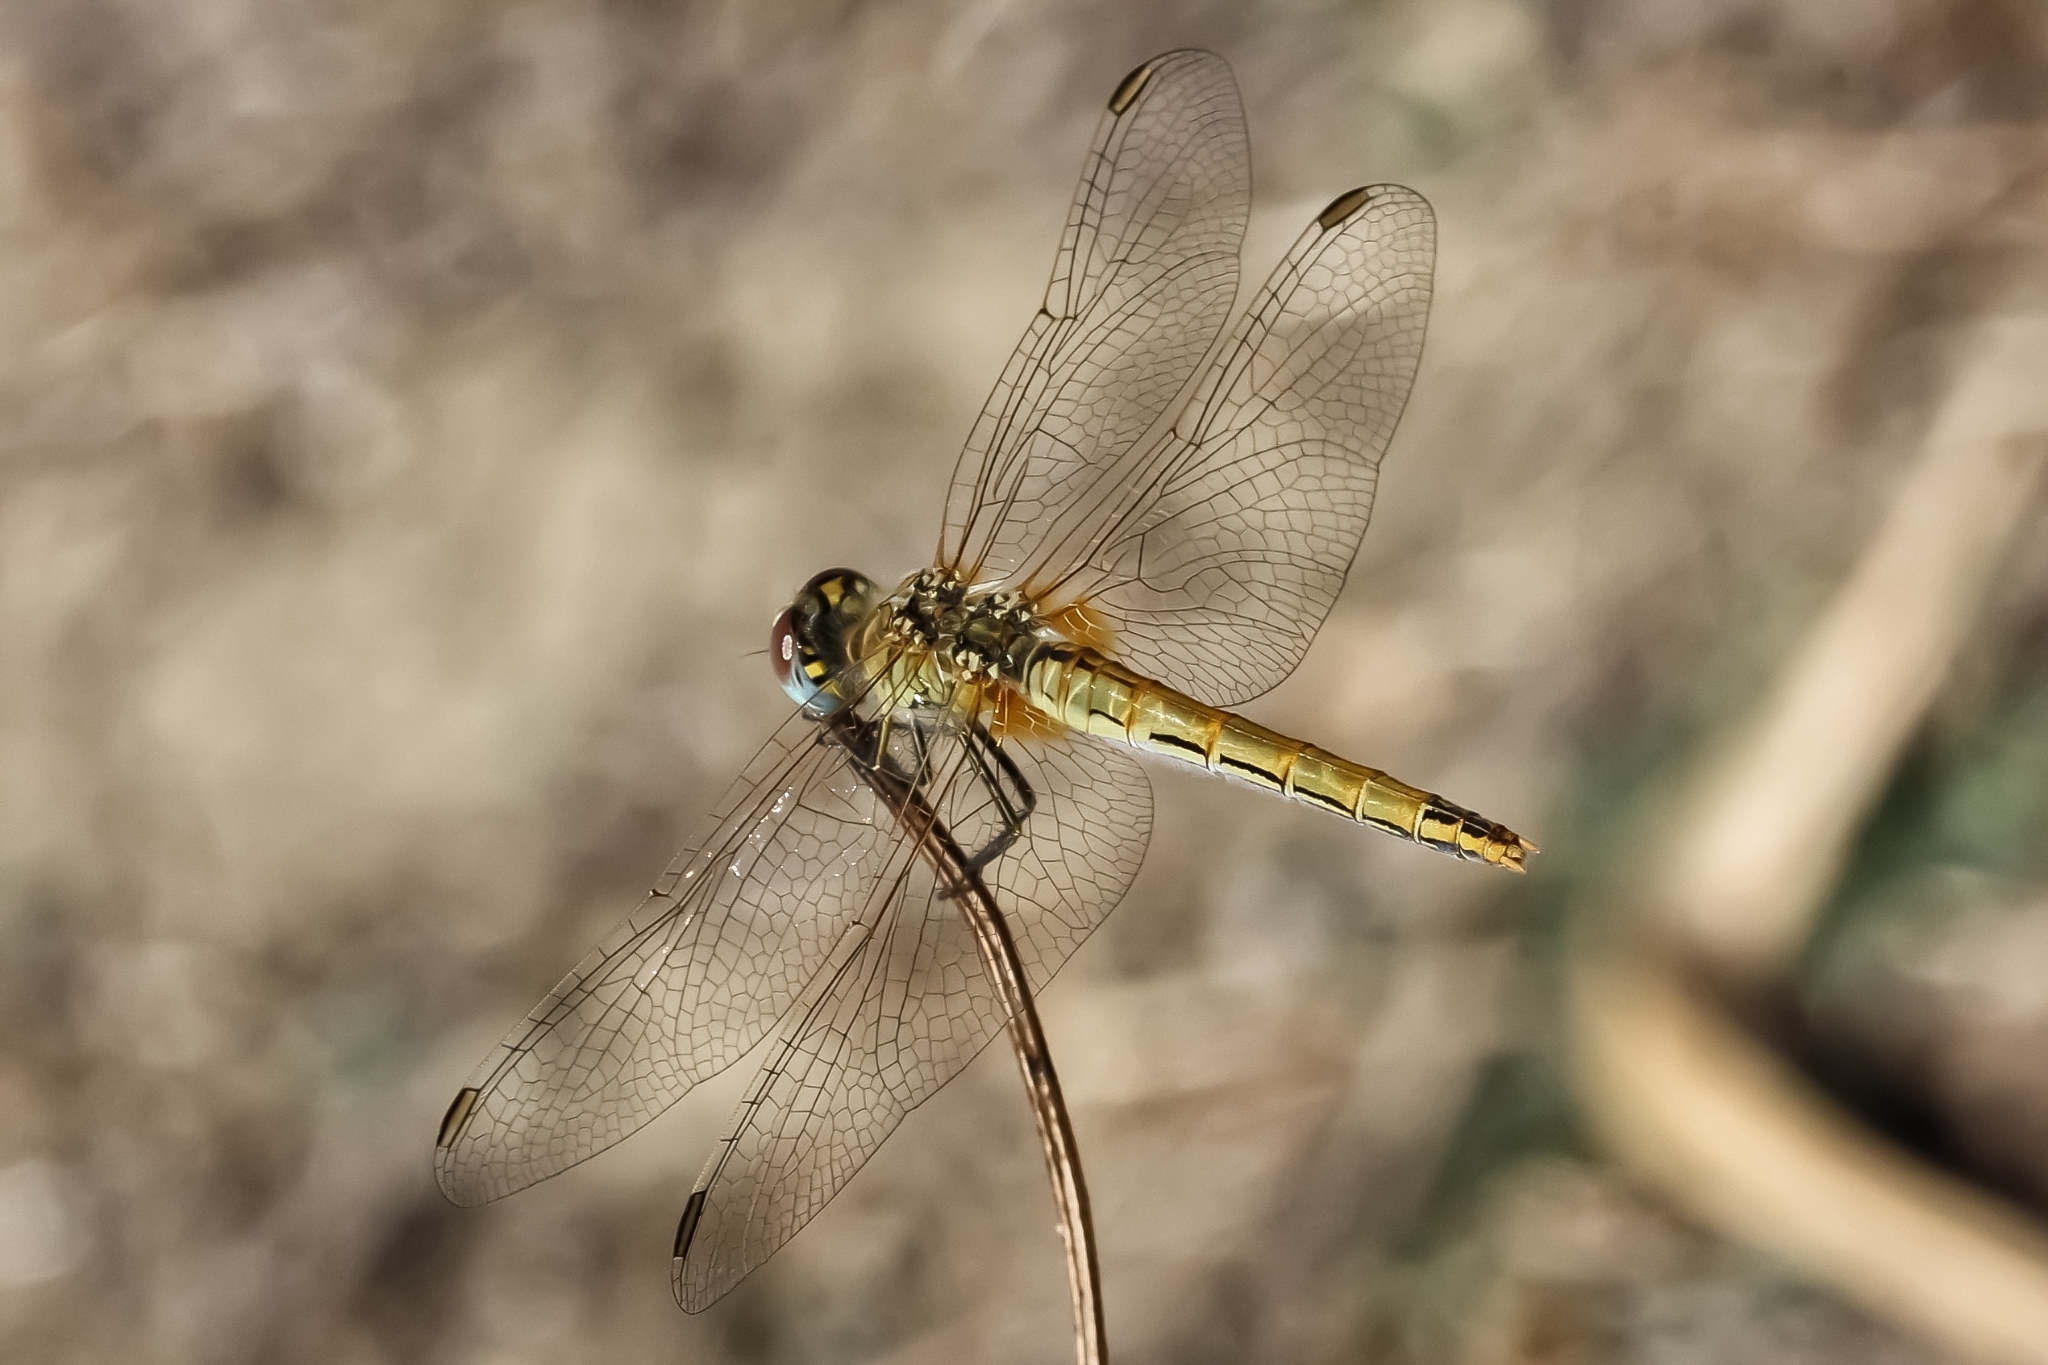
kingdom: Animalia
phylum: Arthropoda
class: Insecta
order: Odonata
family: Libellulidae
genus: Sympetrum
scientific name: Sympetrum fonscolombii
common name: Red-veined darter
